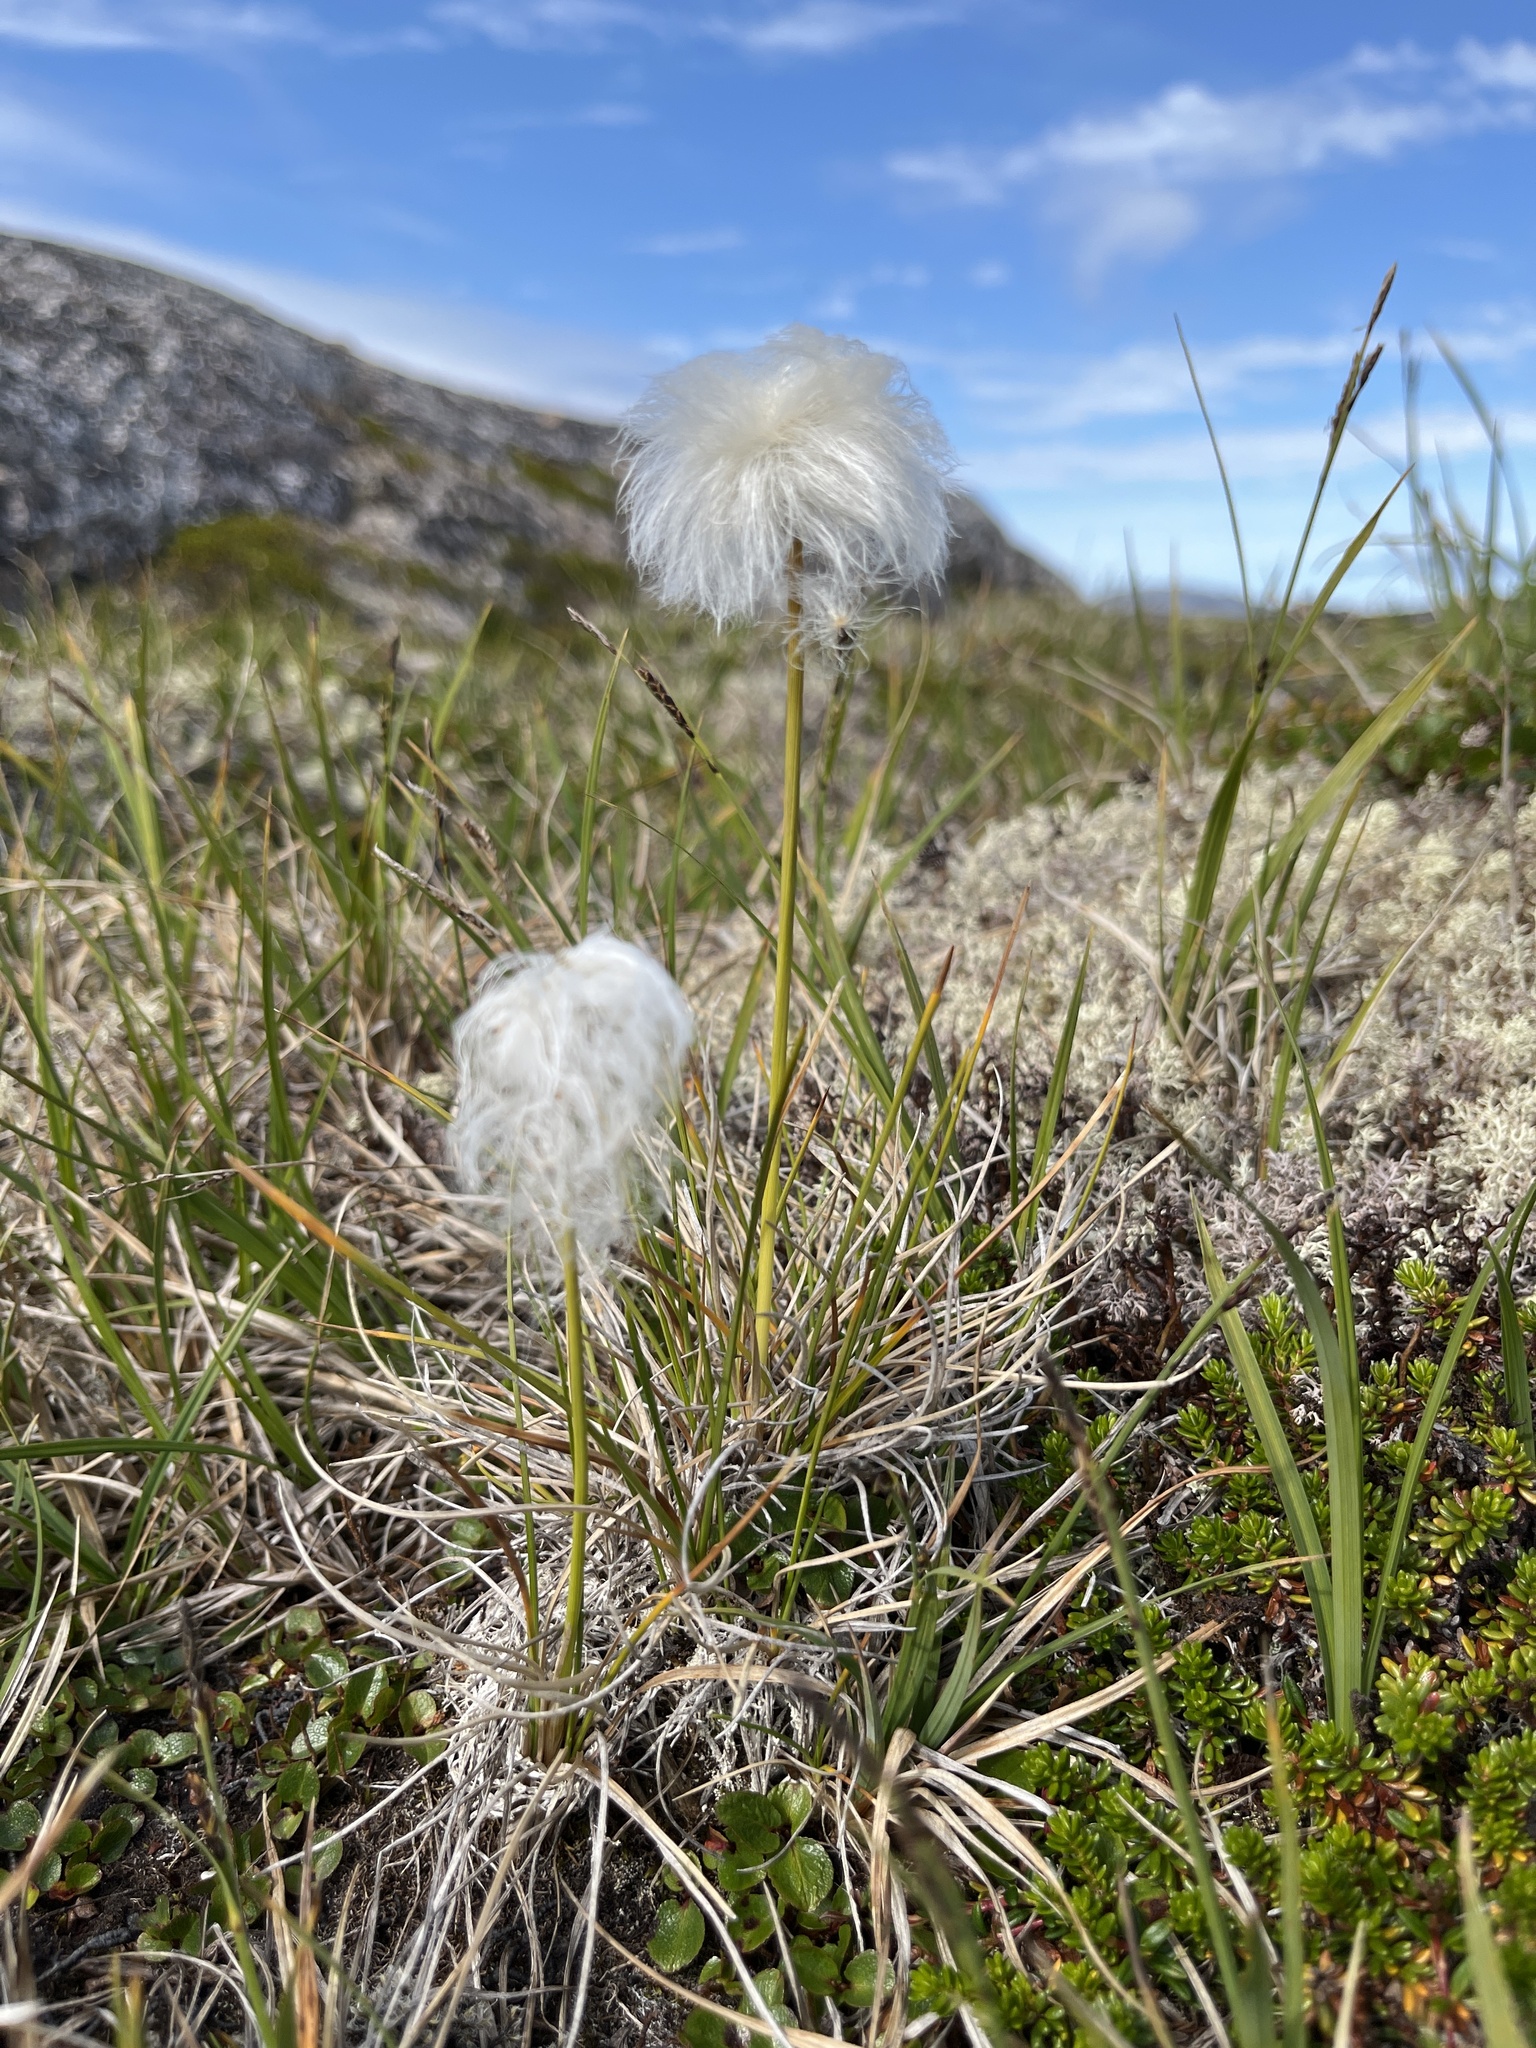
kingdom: Plantae
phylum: Tracheophyta
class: Liliopsida
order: Poales
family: Cyperaceae
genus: Eriophorum
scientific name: Eriophorum vaginatum
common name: Hare's-tail cottongrass
